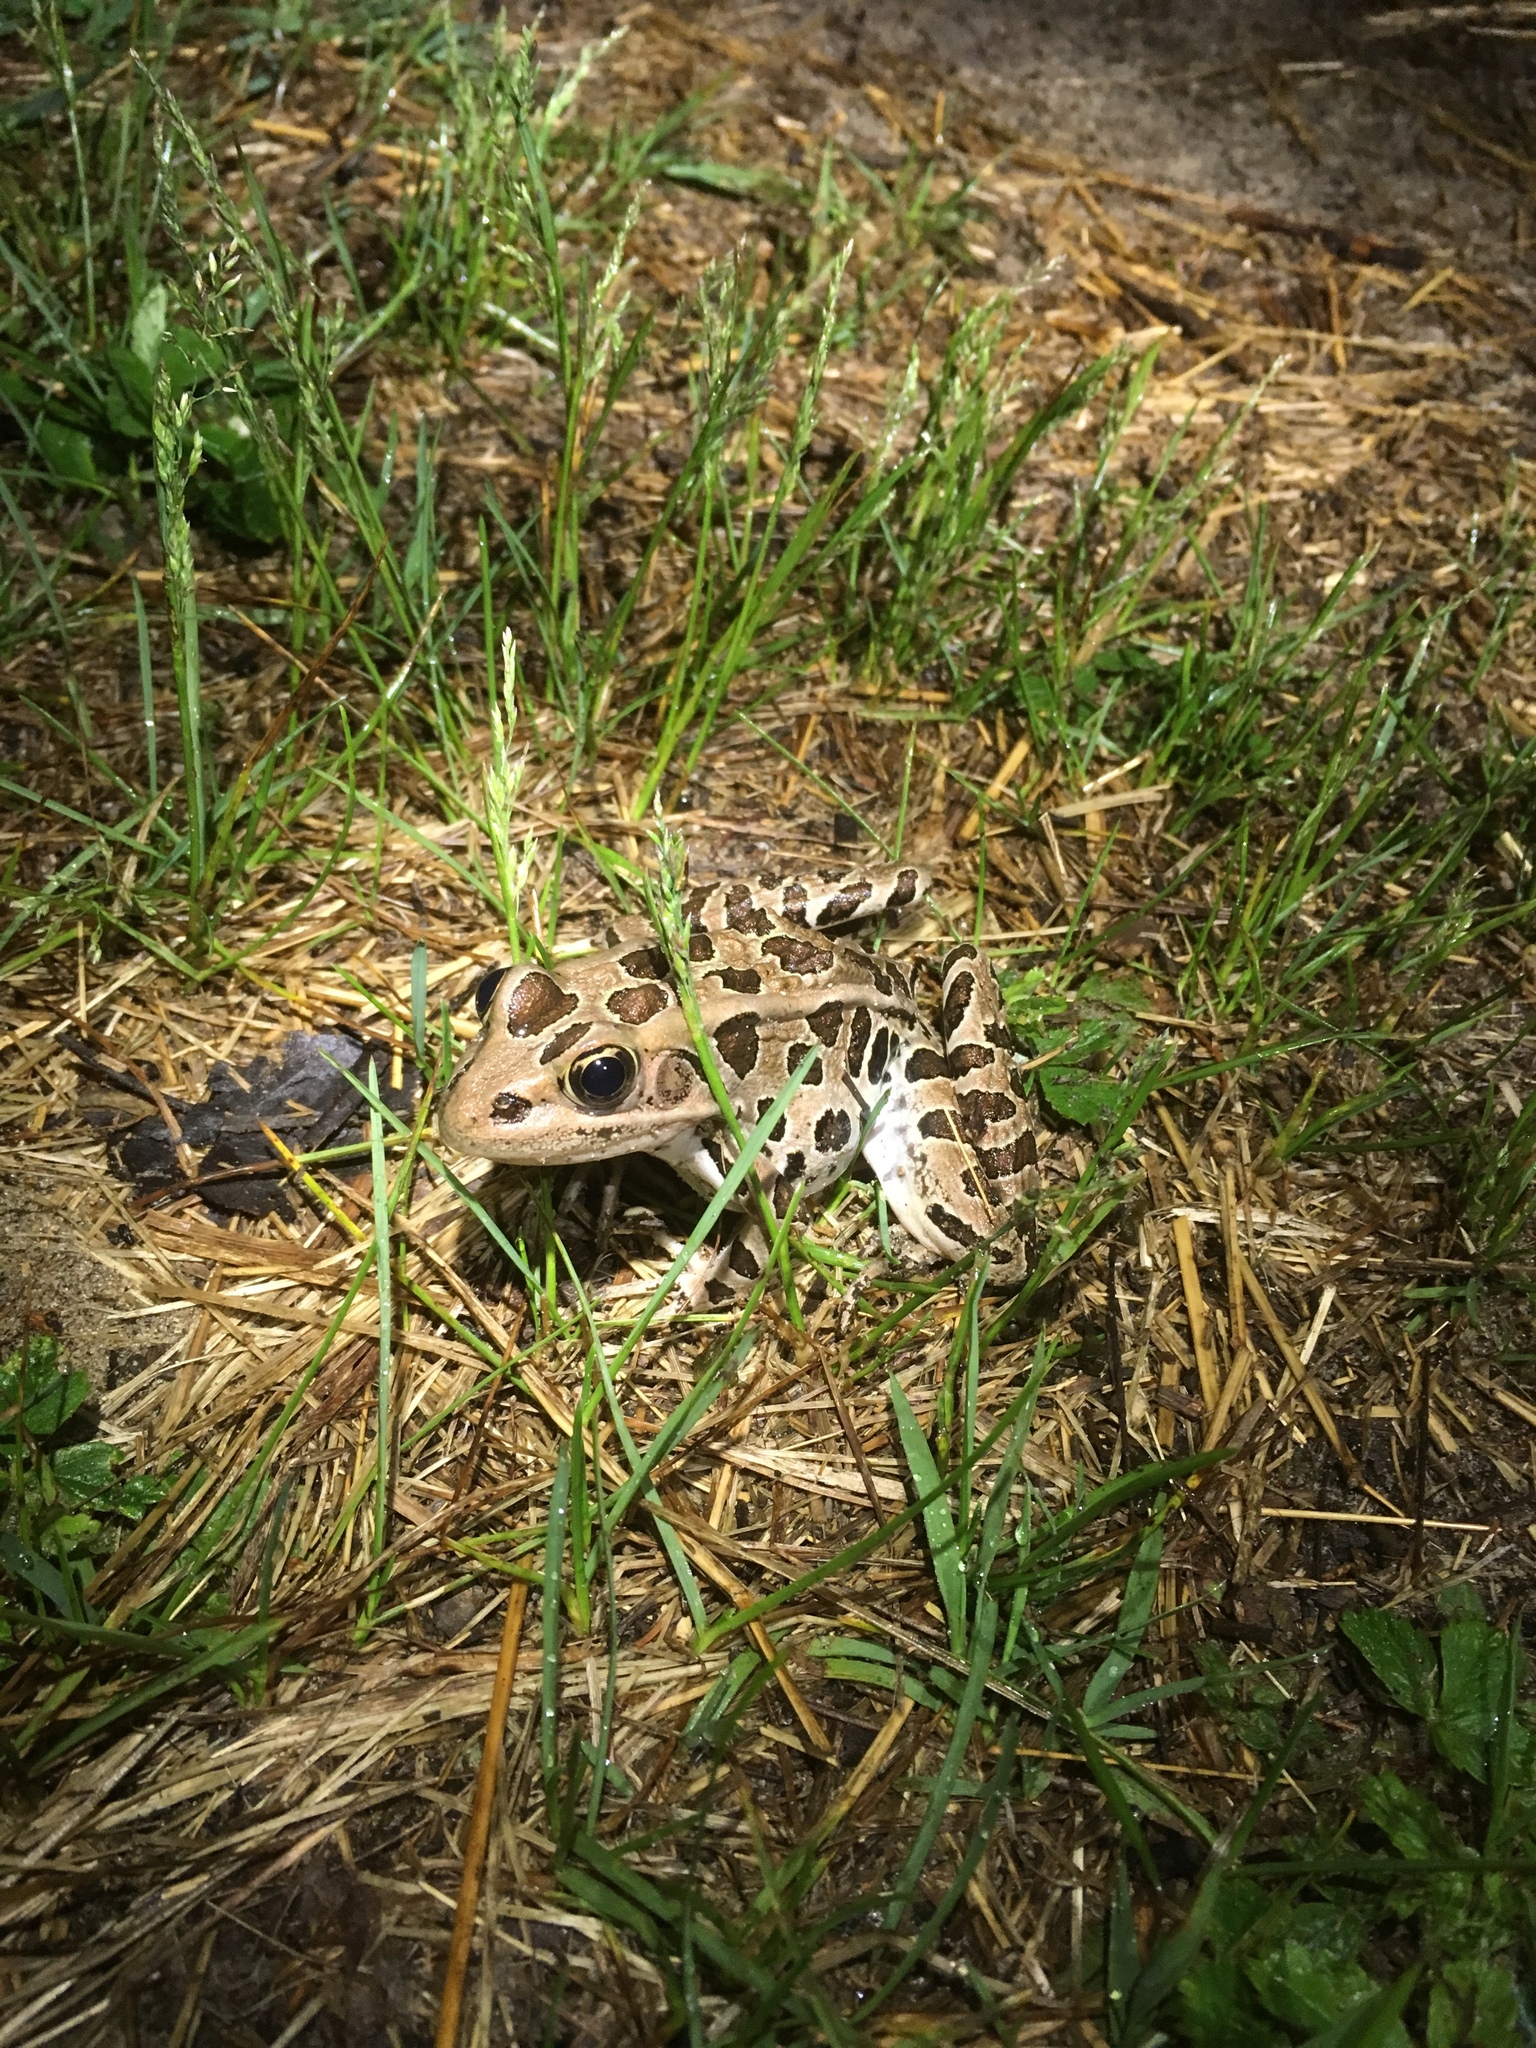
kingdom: Animalia
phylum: Chordata
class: Amphibia
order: Anura
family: Ranidae
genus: Lithobates
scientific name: Lithobates pipiens
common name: Northern leopard frog
